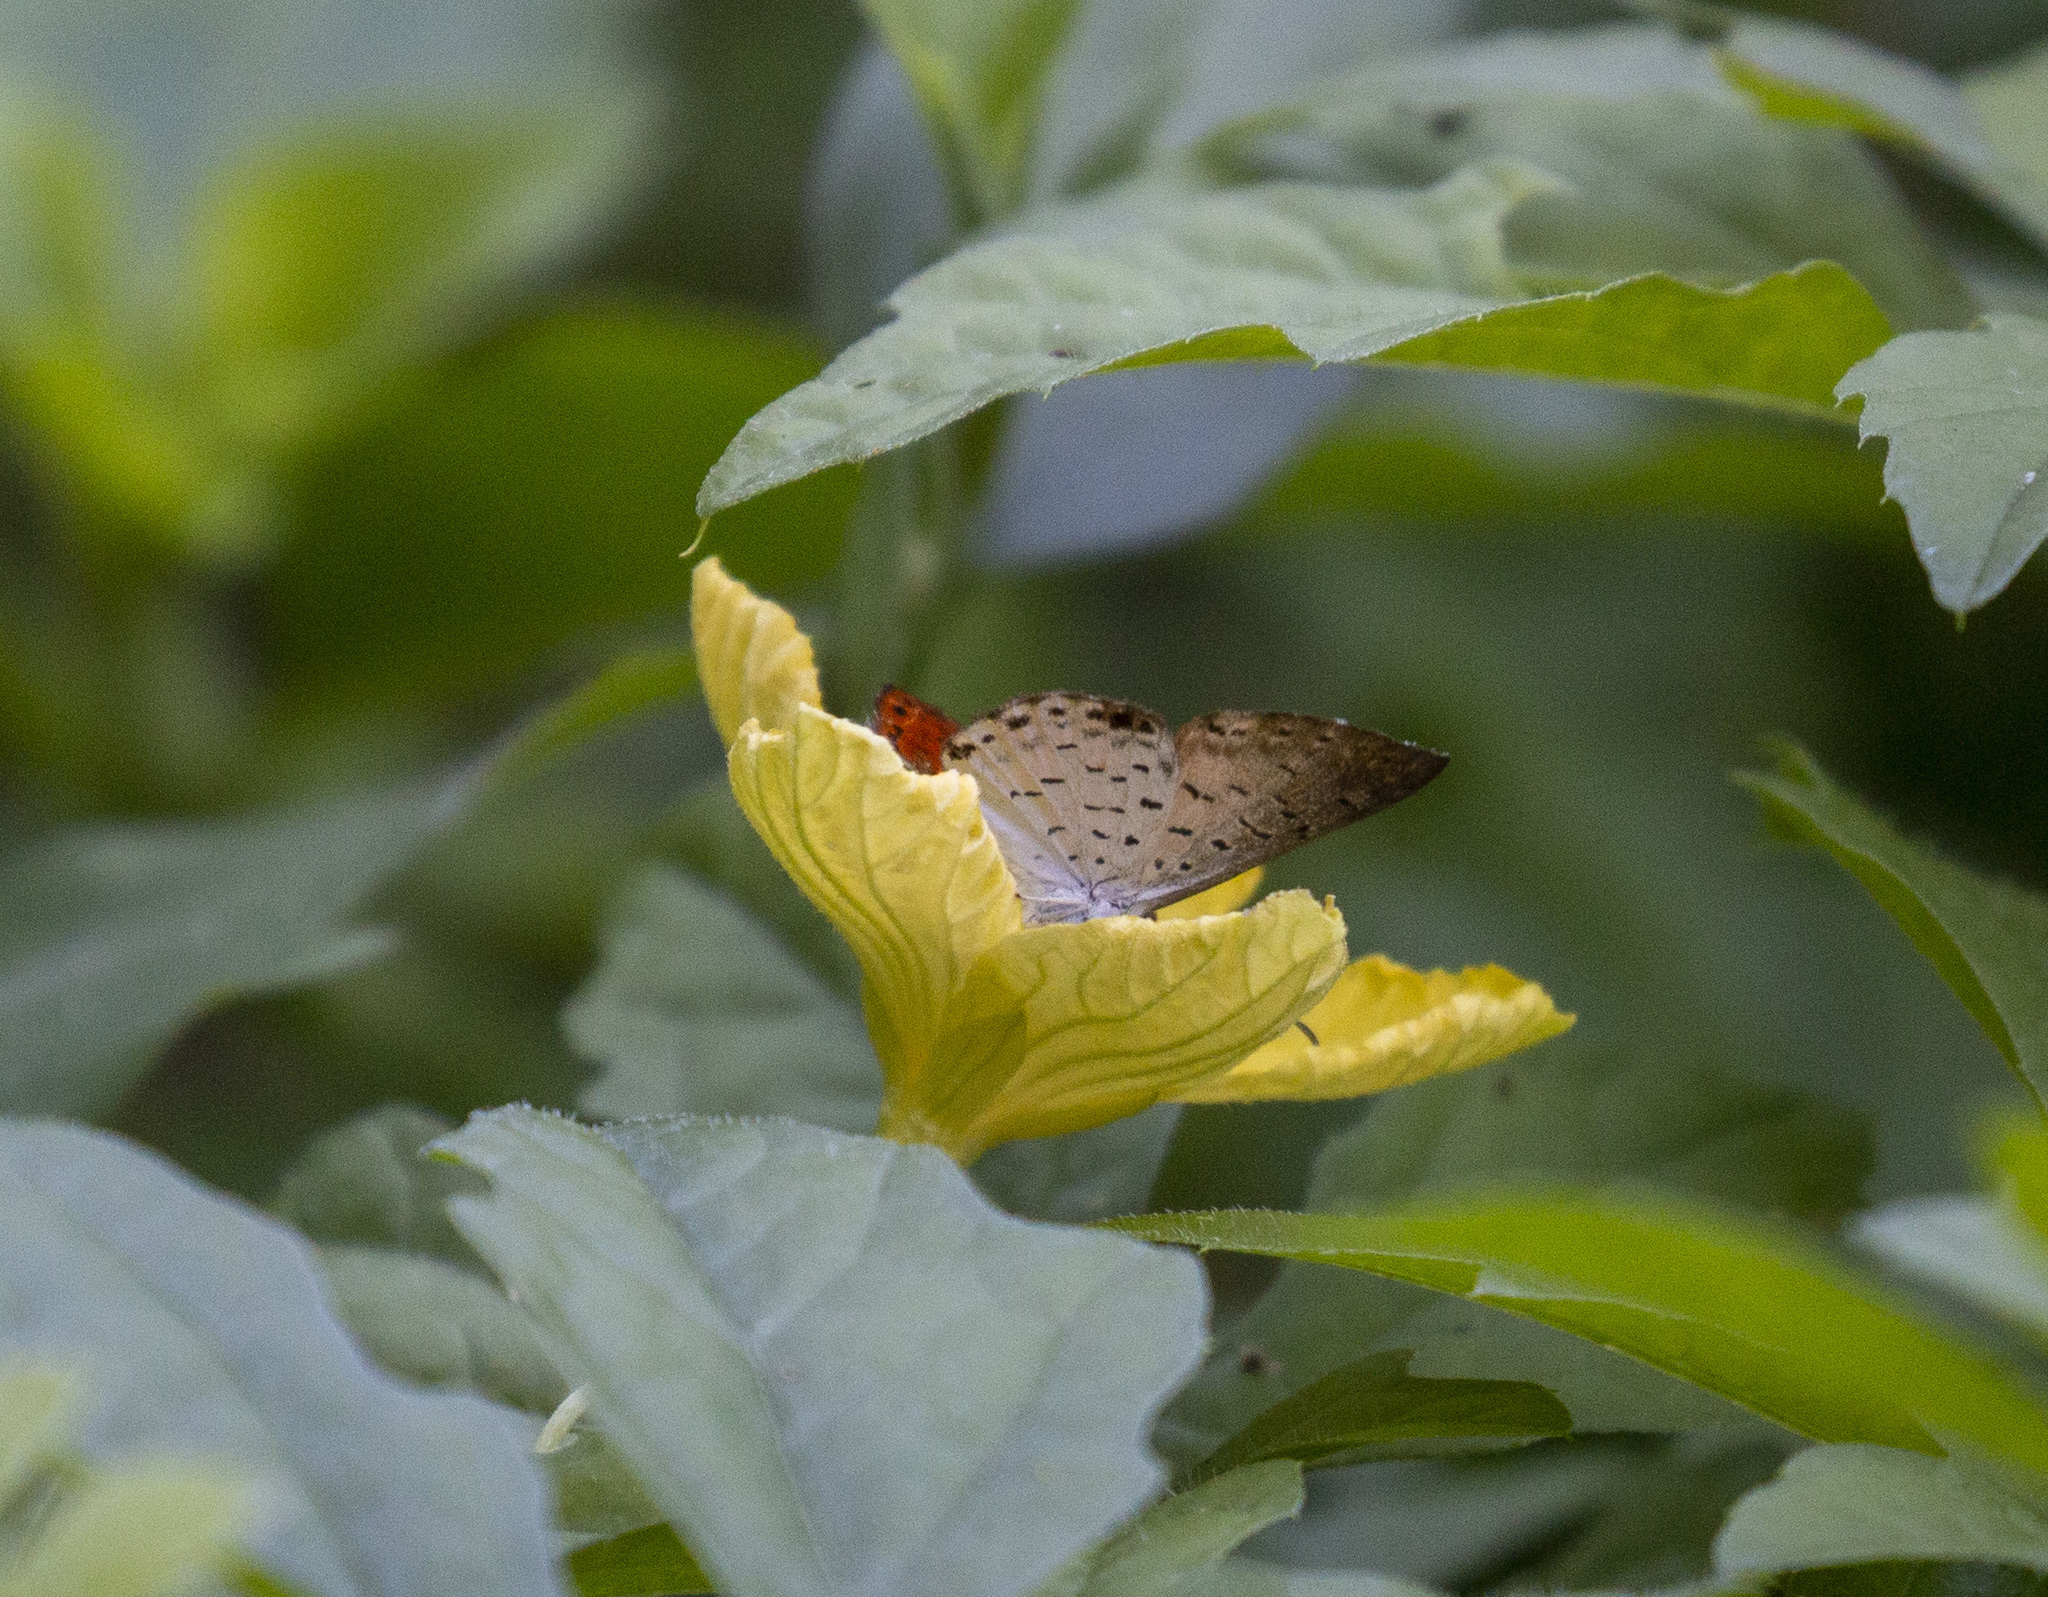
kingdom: Animalia
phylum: Arthropoda
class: Insecta
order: Lepidoptera
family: Riodinidae
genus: Polystichtis
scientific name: Polystichtis lucianus
